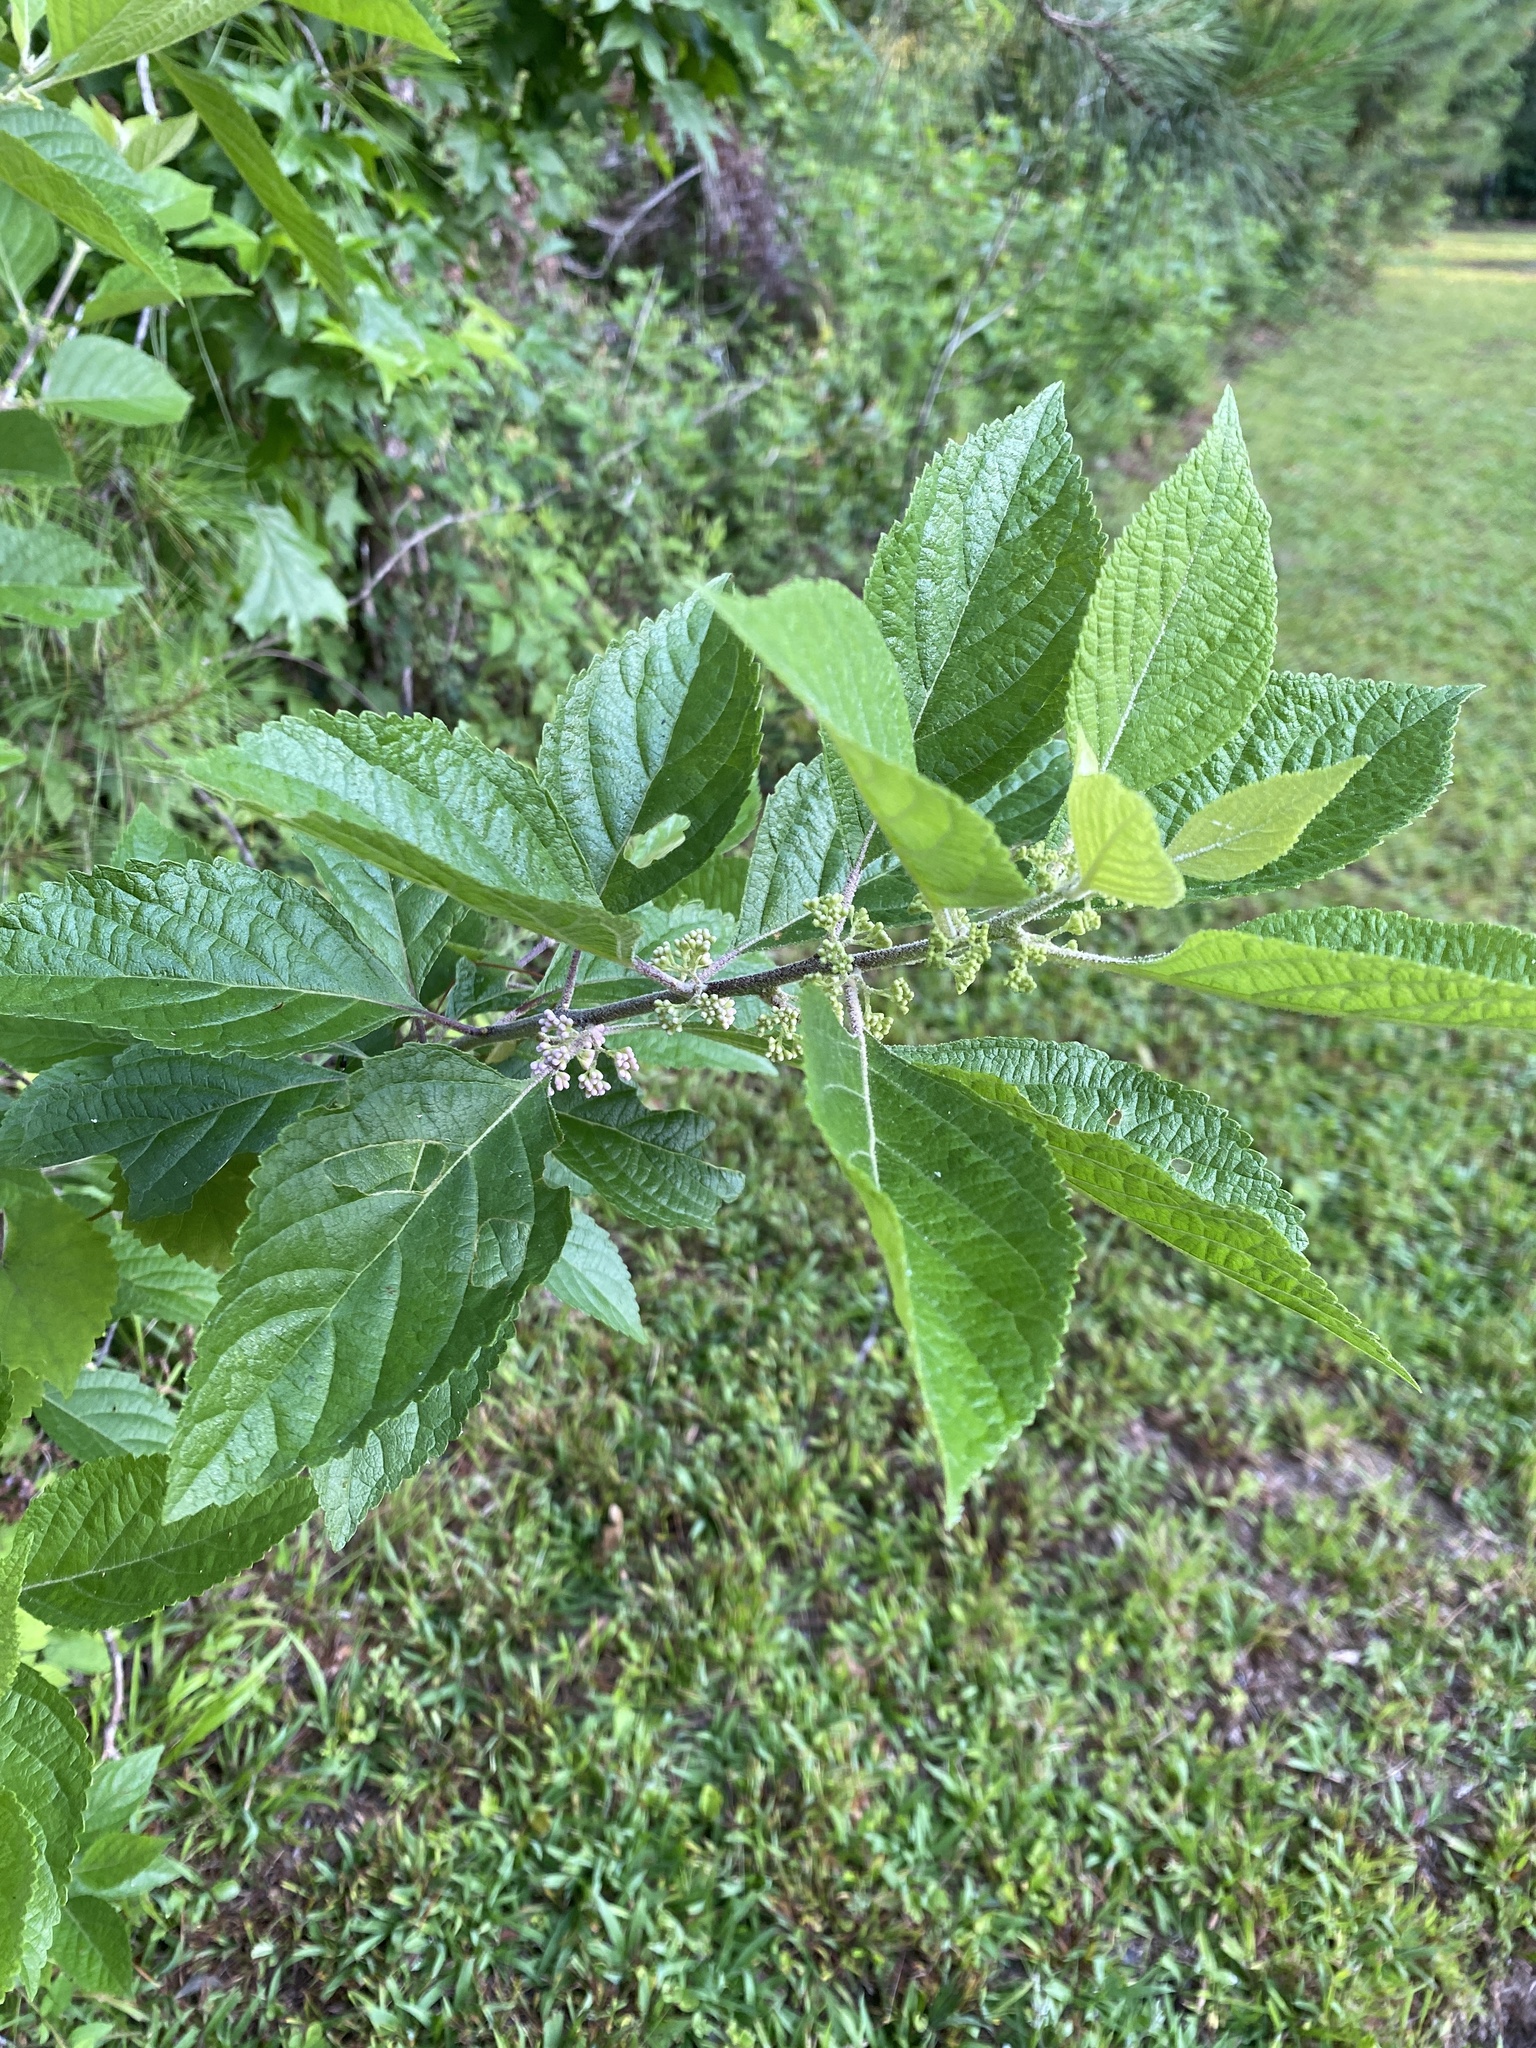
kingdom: Plantae
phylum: Tracheophyta
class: Magnoliopsida
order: Lamiales
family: Lamiaceae
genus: Callicarpa
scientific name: Callicarpa americana
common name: American beautyberry
